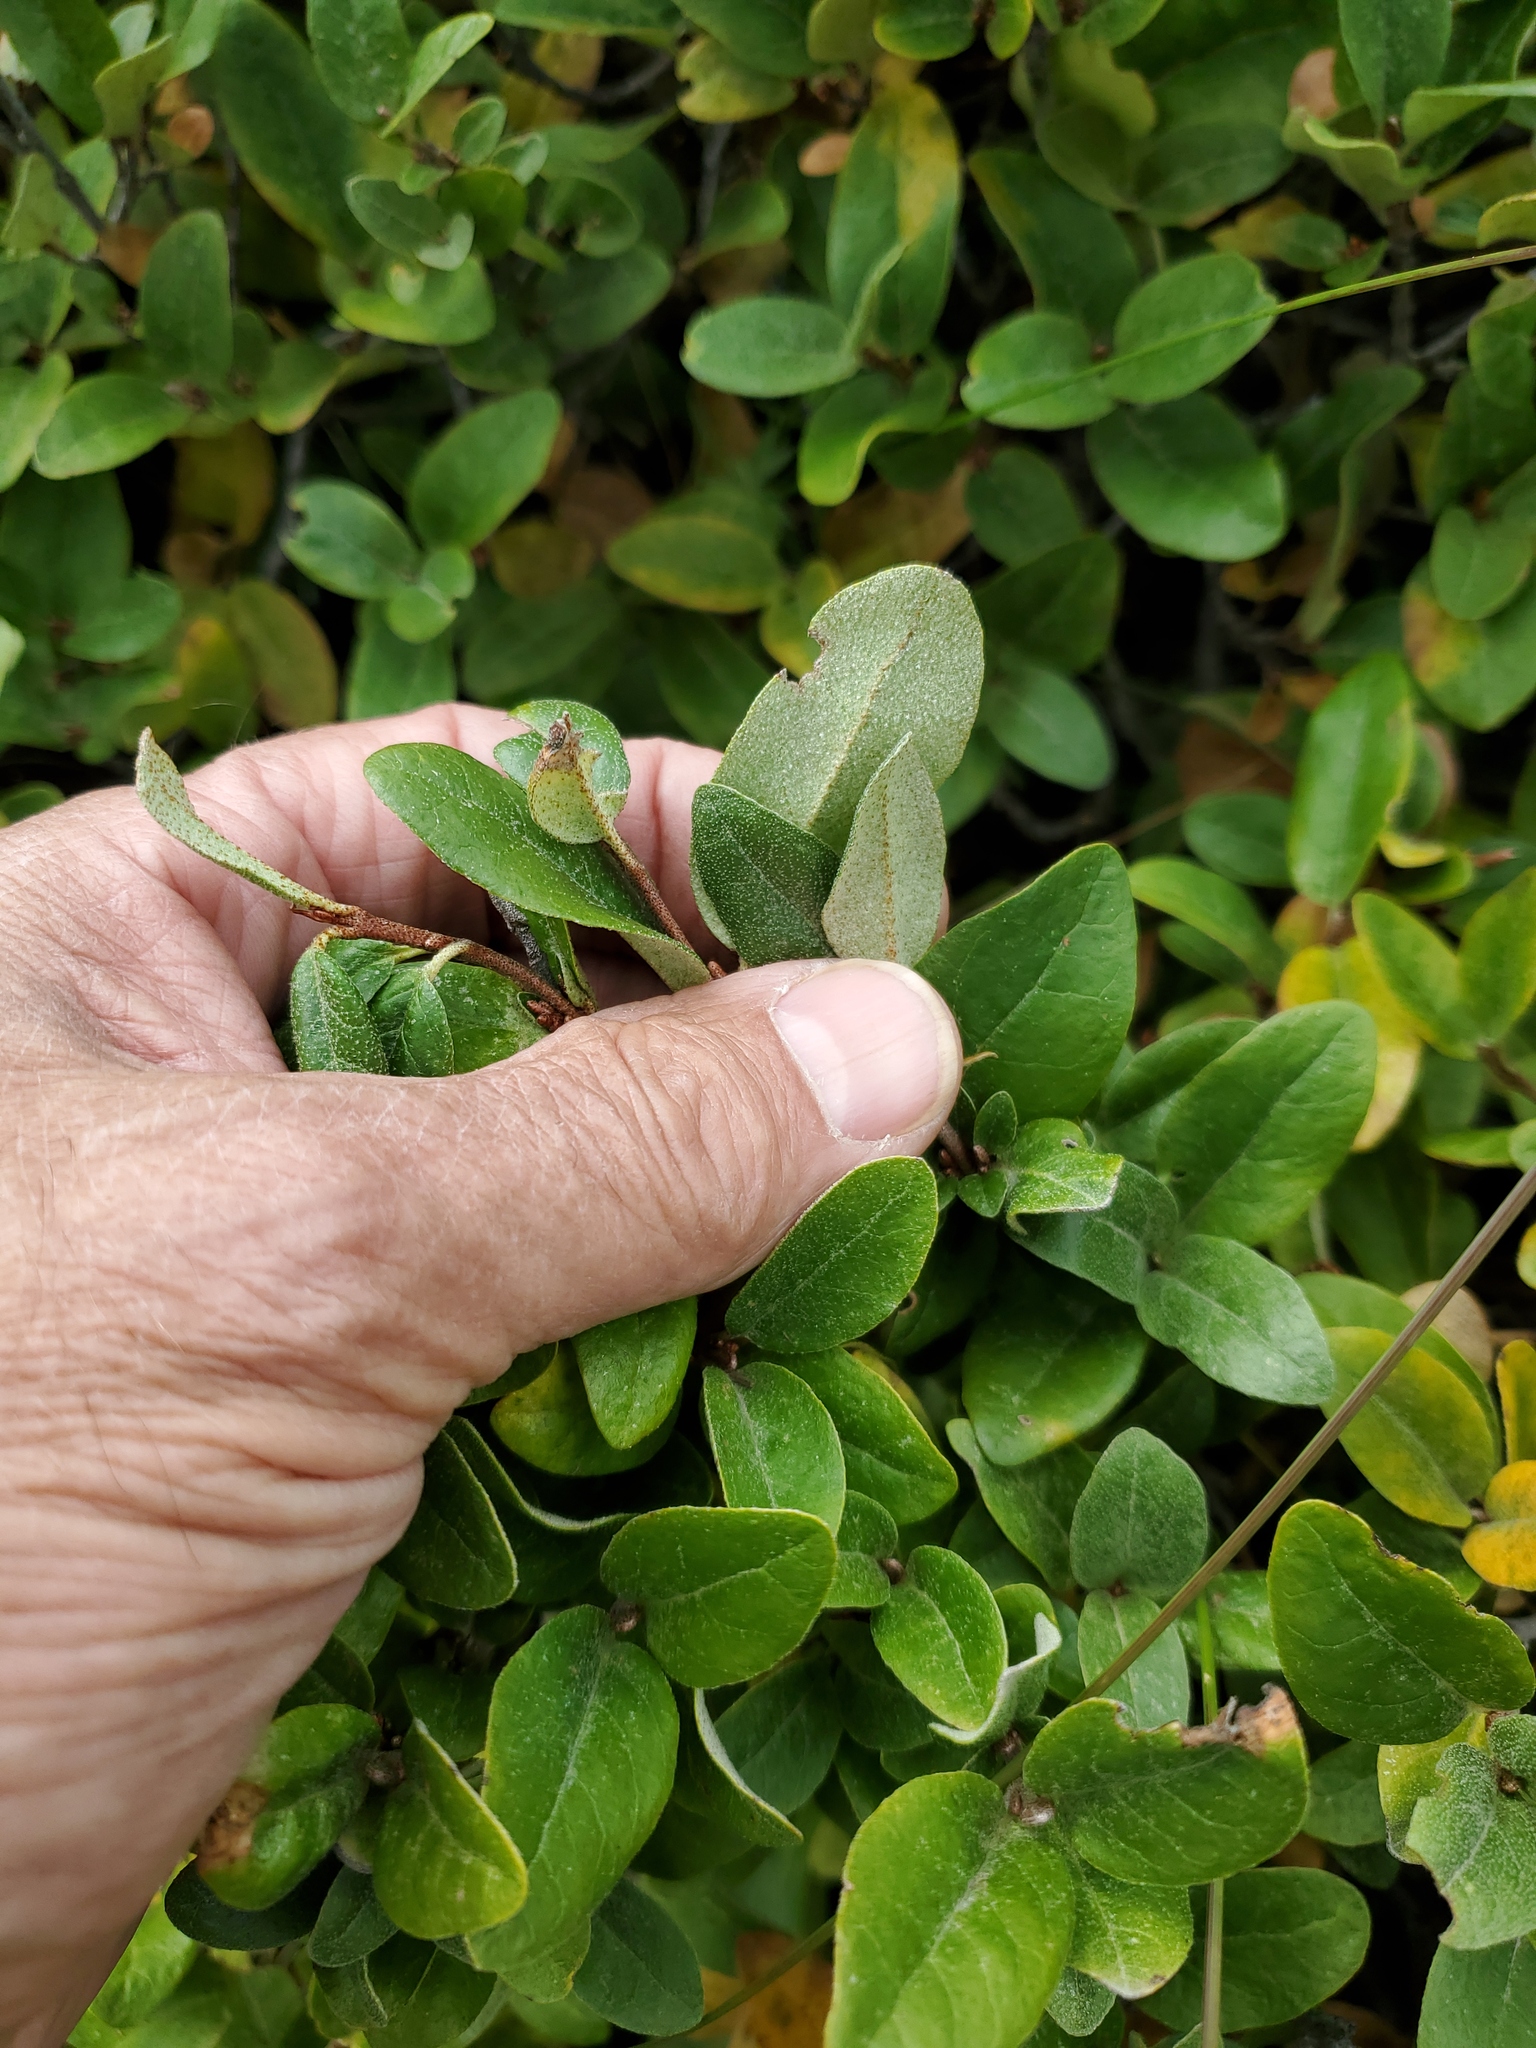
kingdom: Plantae
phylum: Tracheophyta
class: Magnoliopsida
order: Rosales
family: Elaeagnaceae
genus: Shepherdia
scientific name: Shepherdia canadensis
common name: Soapberry
